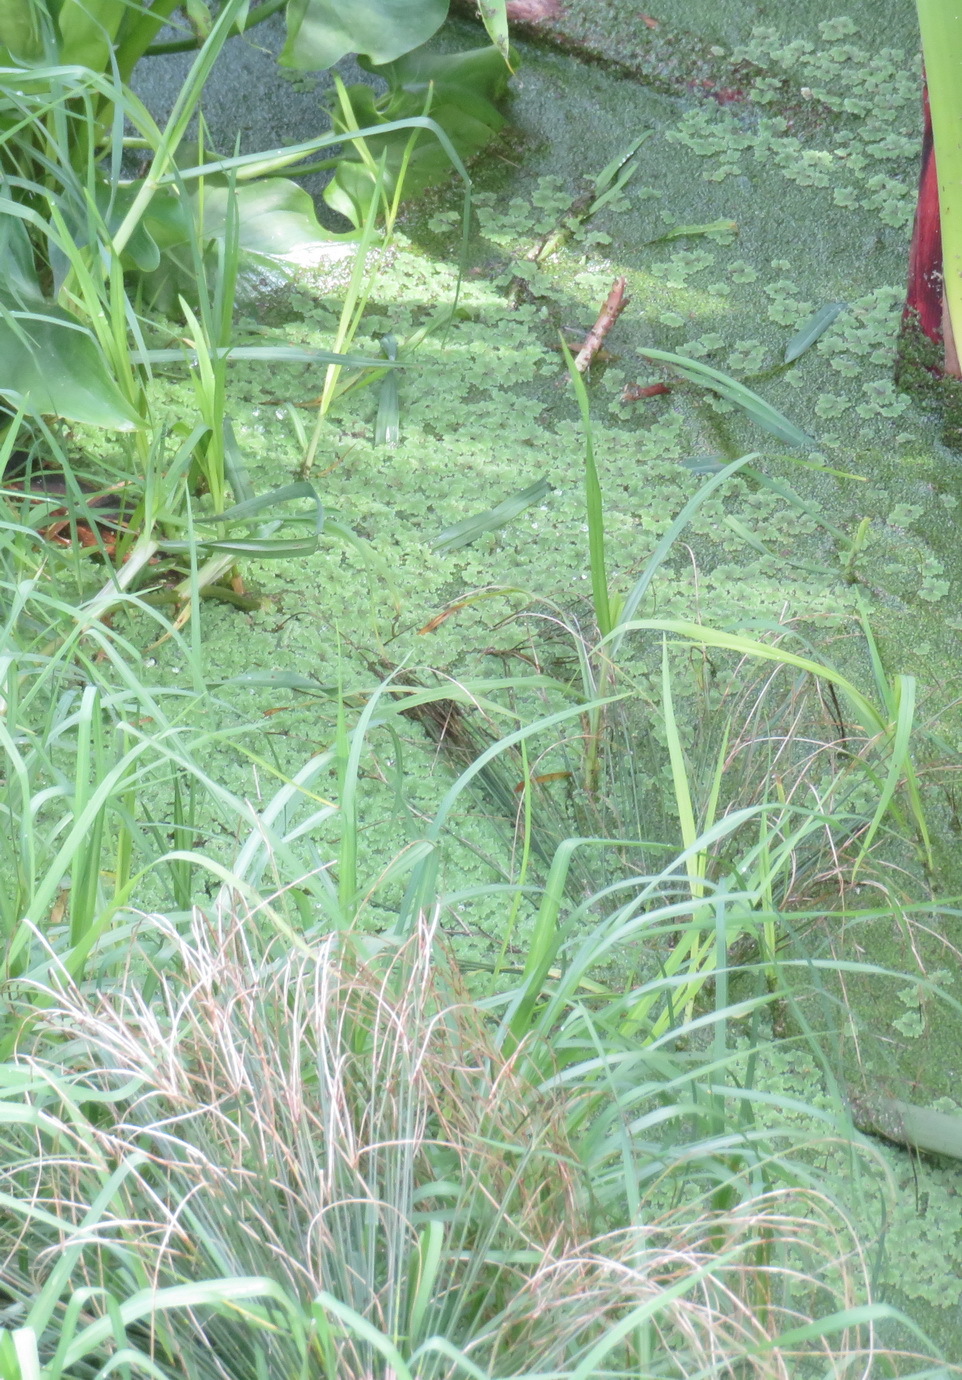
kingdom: Plantae
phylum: Tracheophyta
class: Polypodiopsida
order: Salviniales
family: Salviniaceae
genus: Azolla
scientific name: Azolla filiculoides
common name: Water fern
